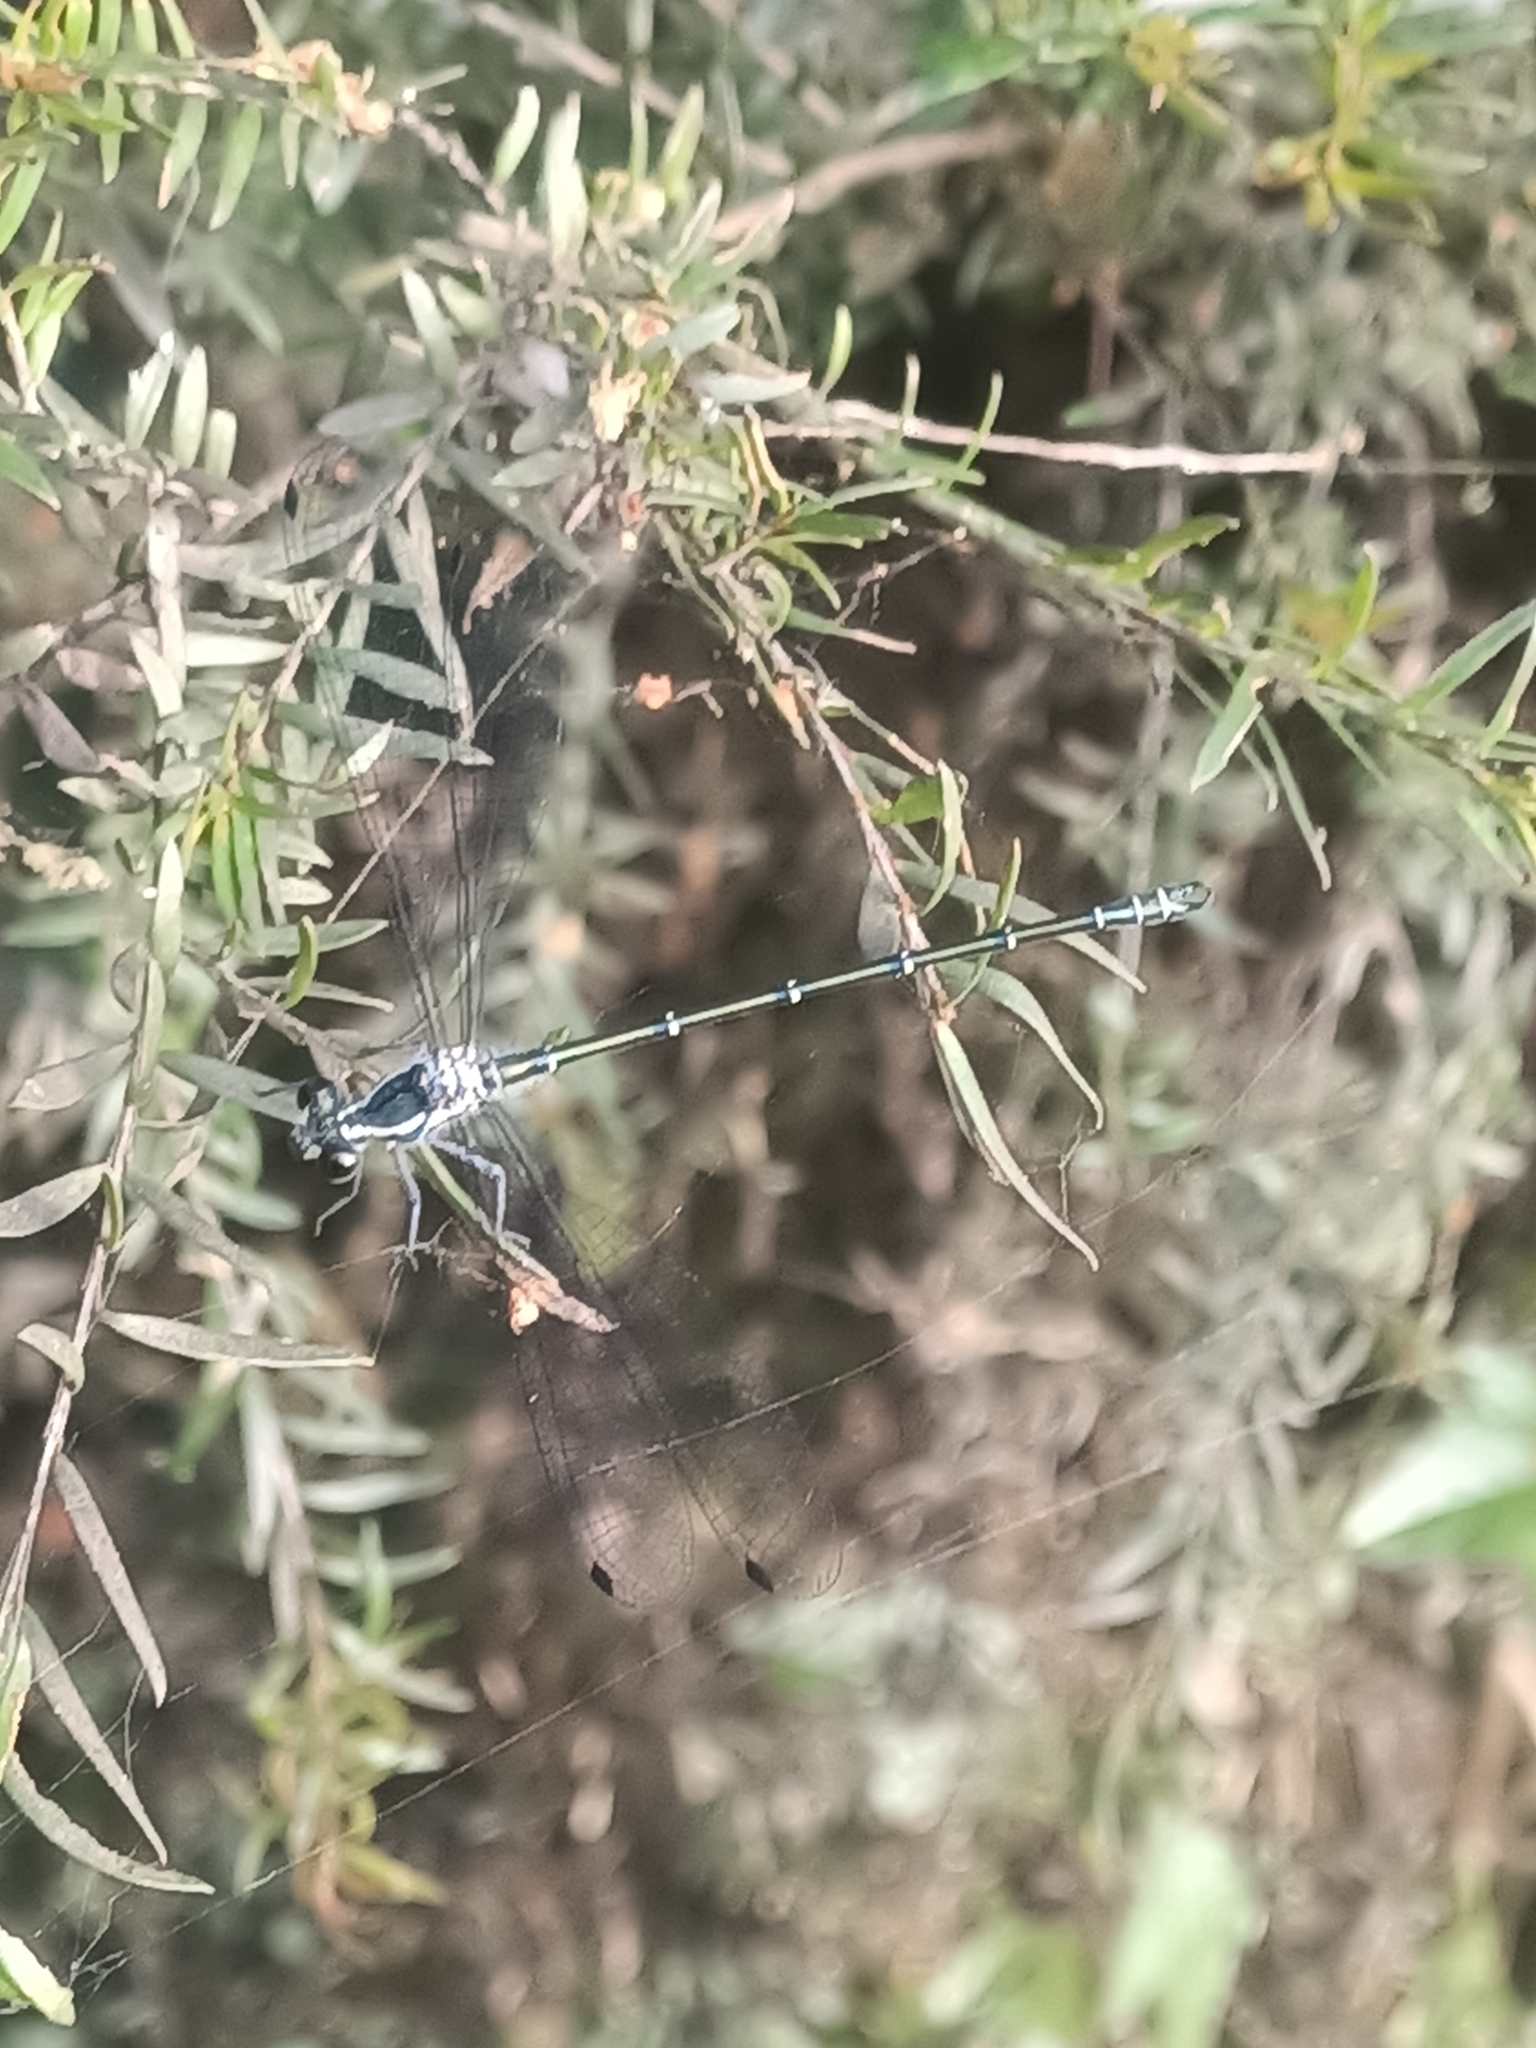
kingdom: Animalia
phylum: Arthropoda
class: Insecta
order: Odonata
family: Argiolestidae
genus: Austroargiolestes
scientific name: Austroargiolestes icteromelas
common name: Common flatwing
